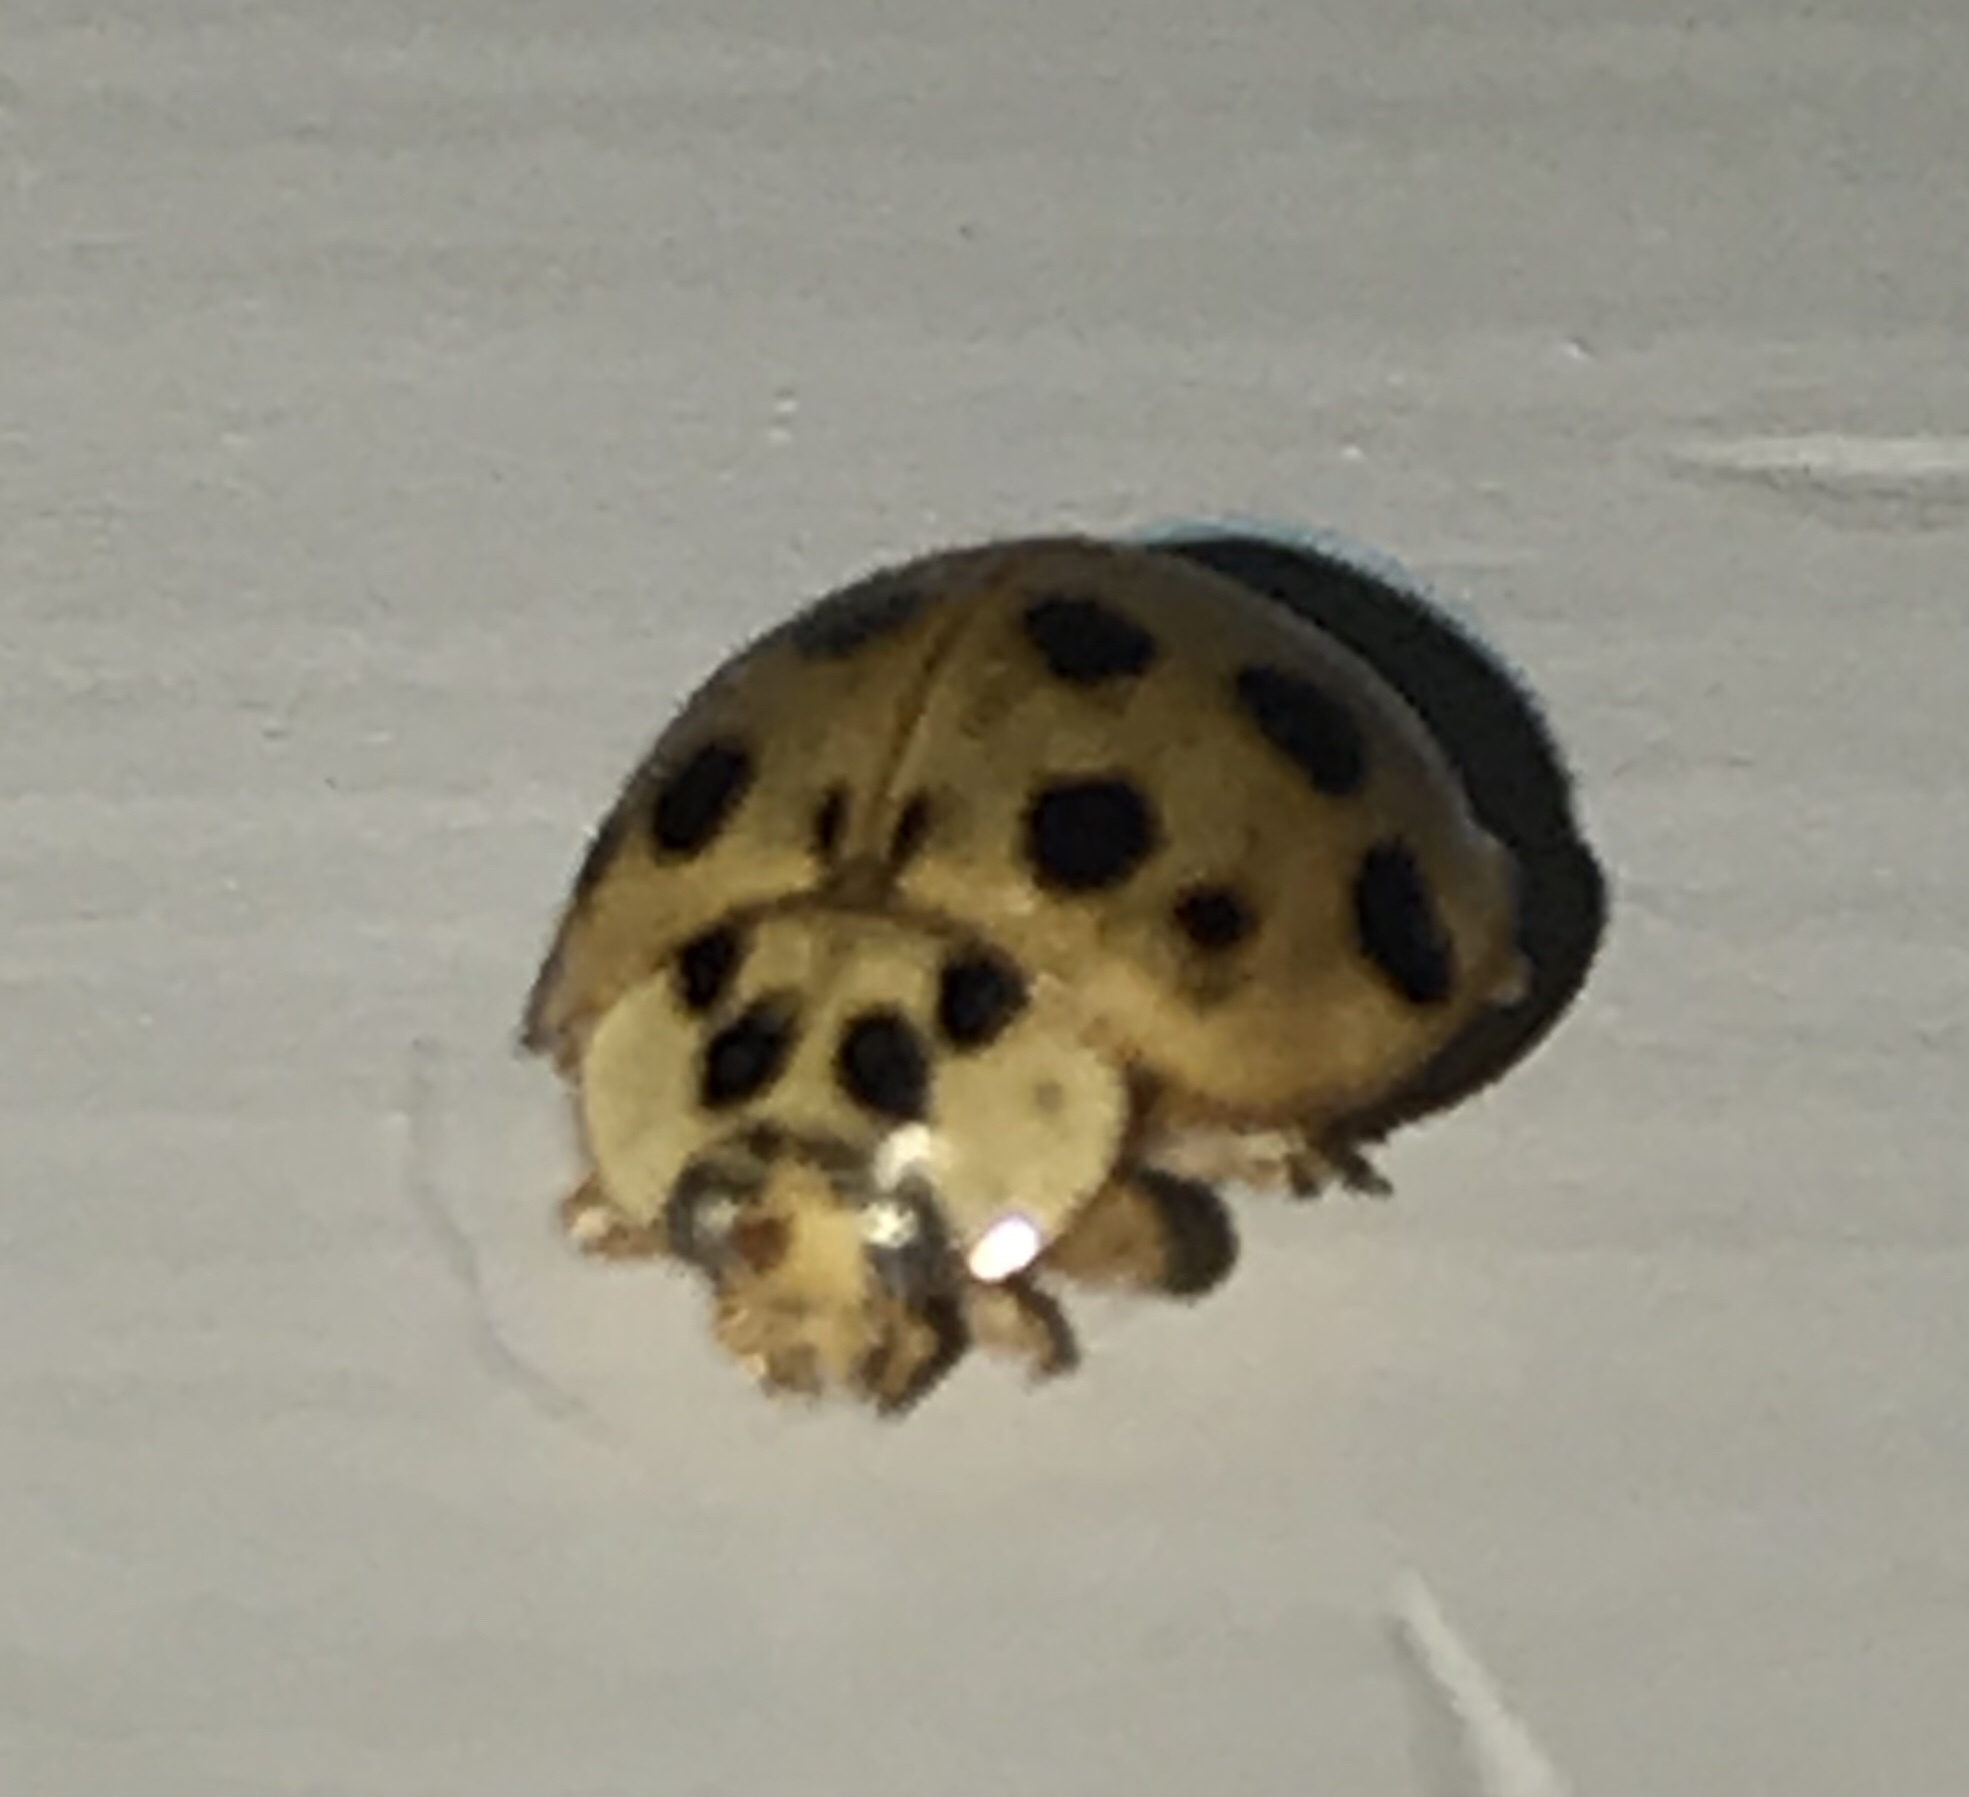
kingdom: Animalia
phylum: Arthropoda
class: Insecta
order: Coleoptera
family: Coccinellidae
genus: Harmonia
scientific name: Harmonia axyridis
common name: Harlequin ladybird
